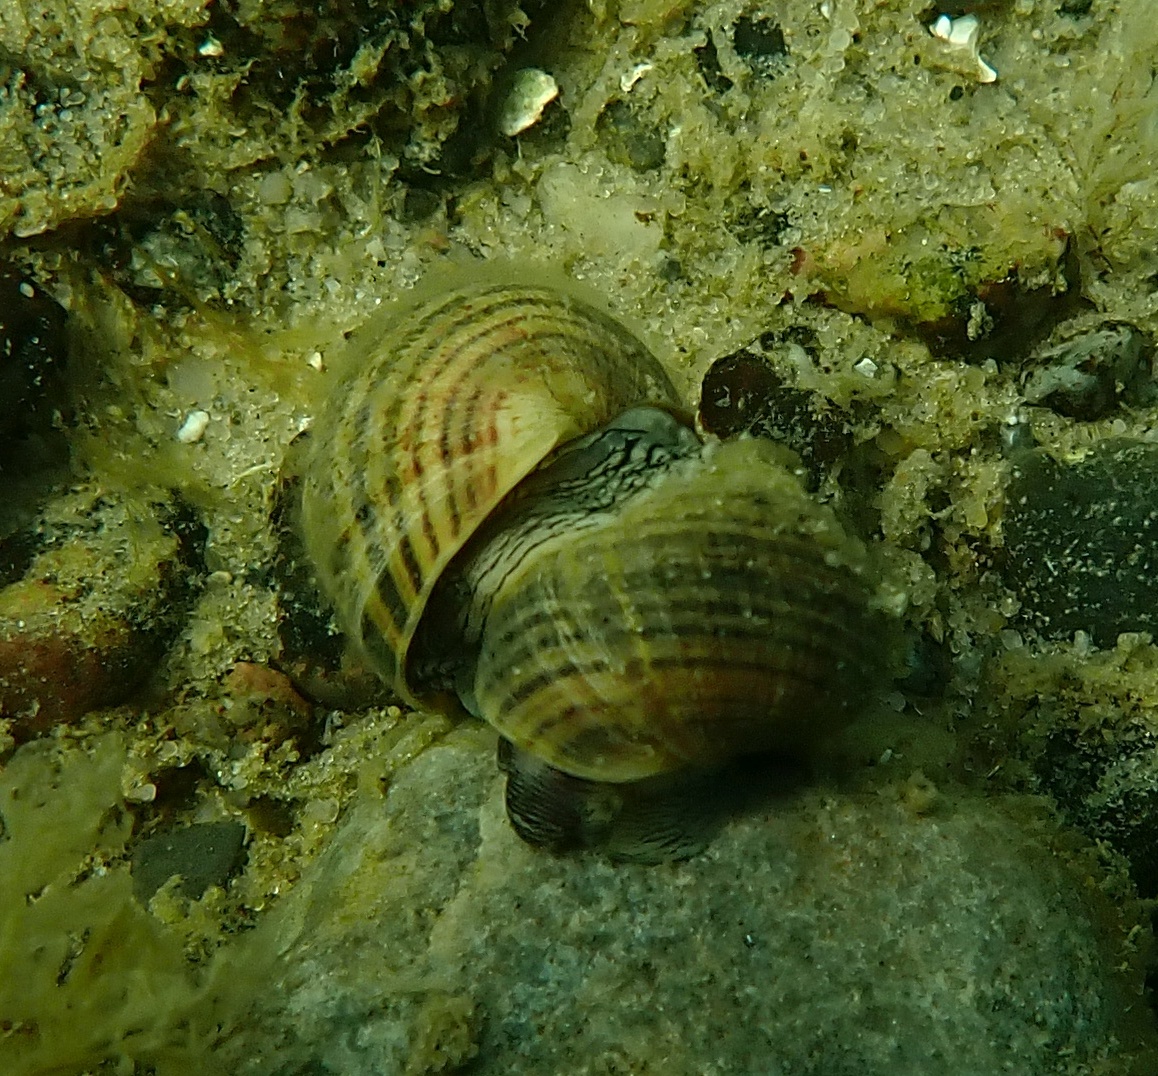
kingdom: Animalia
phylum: Mollusca
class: Gastropoda
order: Littorinimorpha
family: Littorinidae
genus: Littorina
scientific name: Littorina littorea
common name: Common periwinkle
